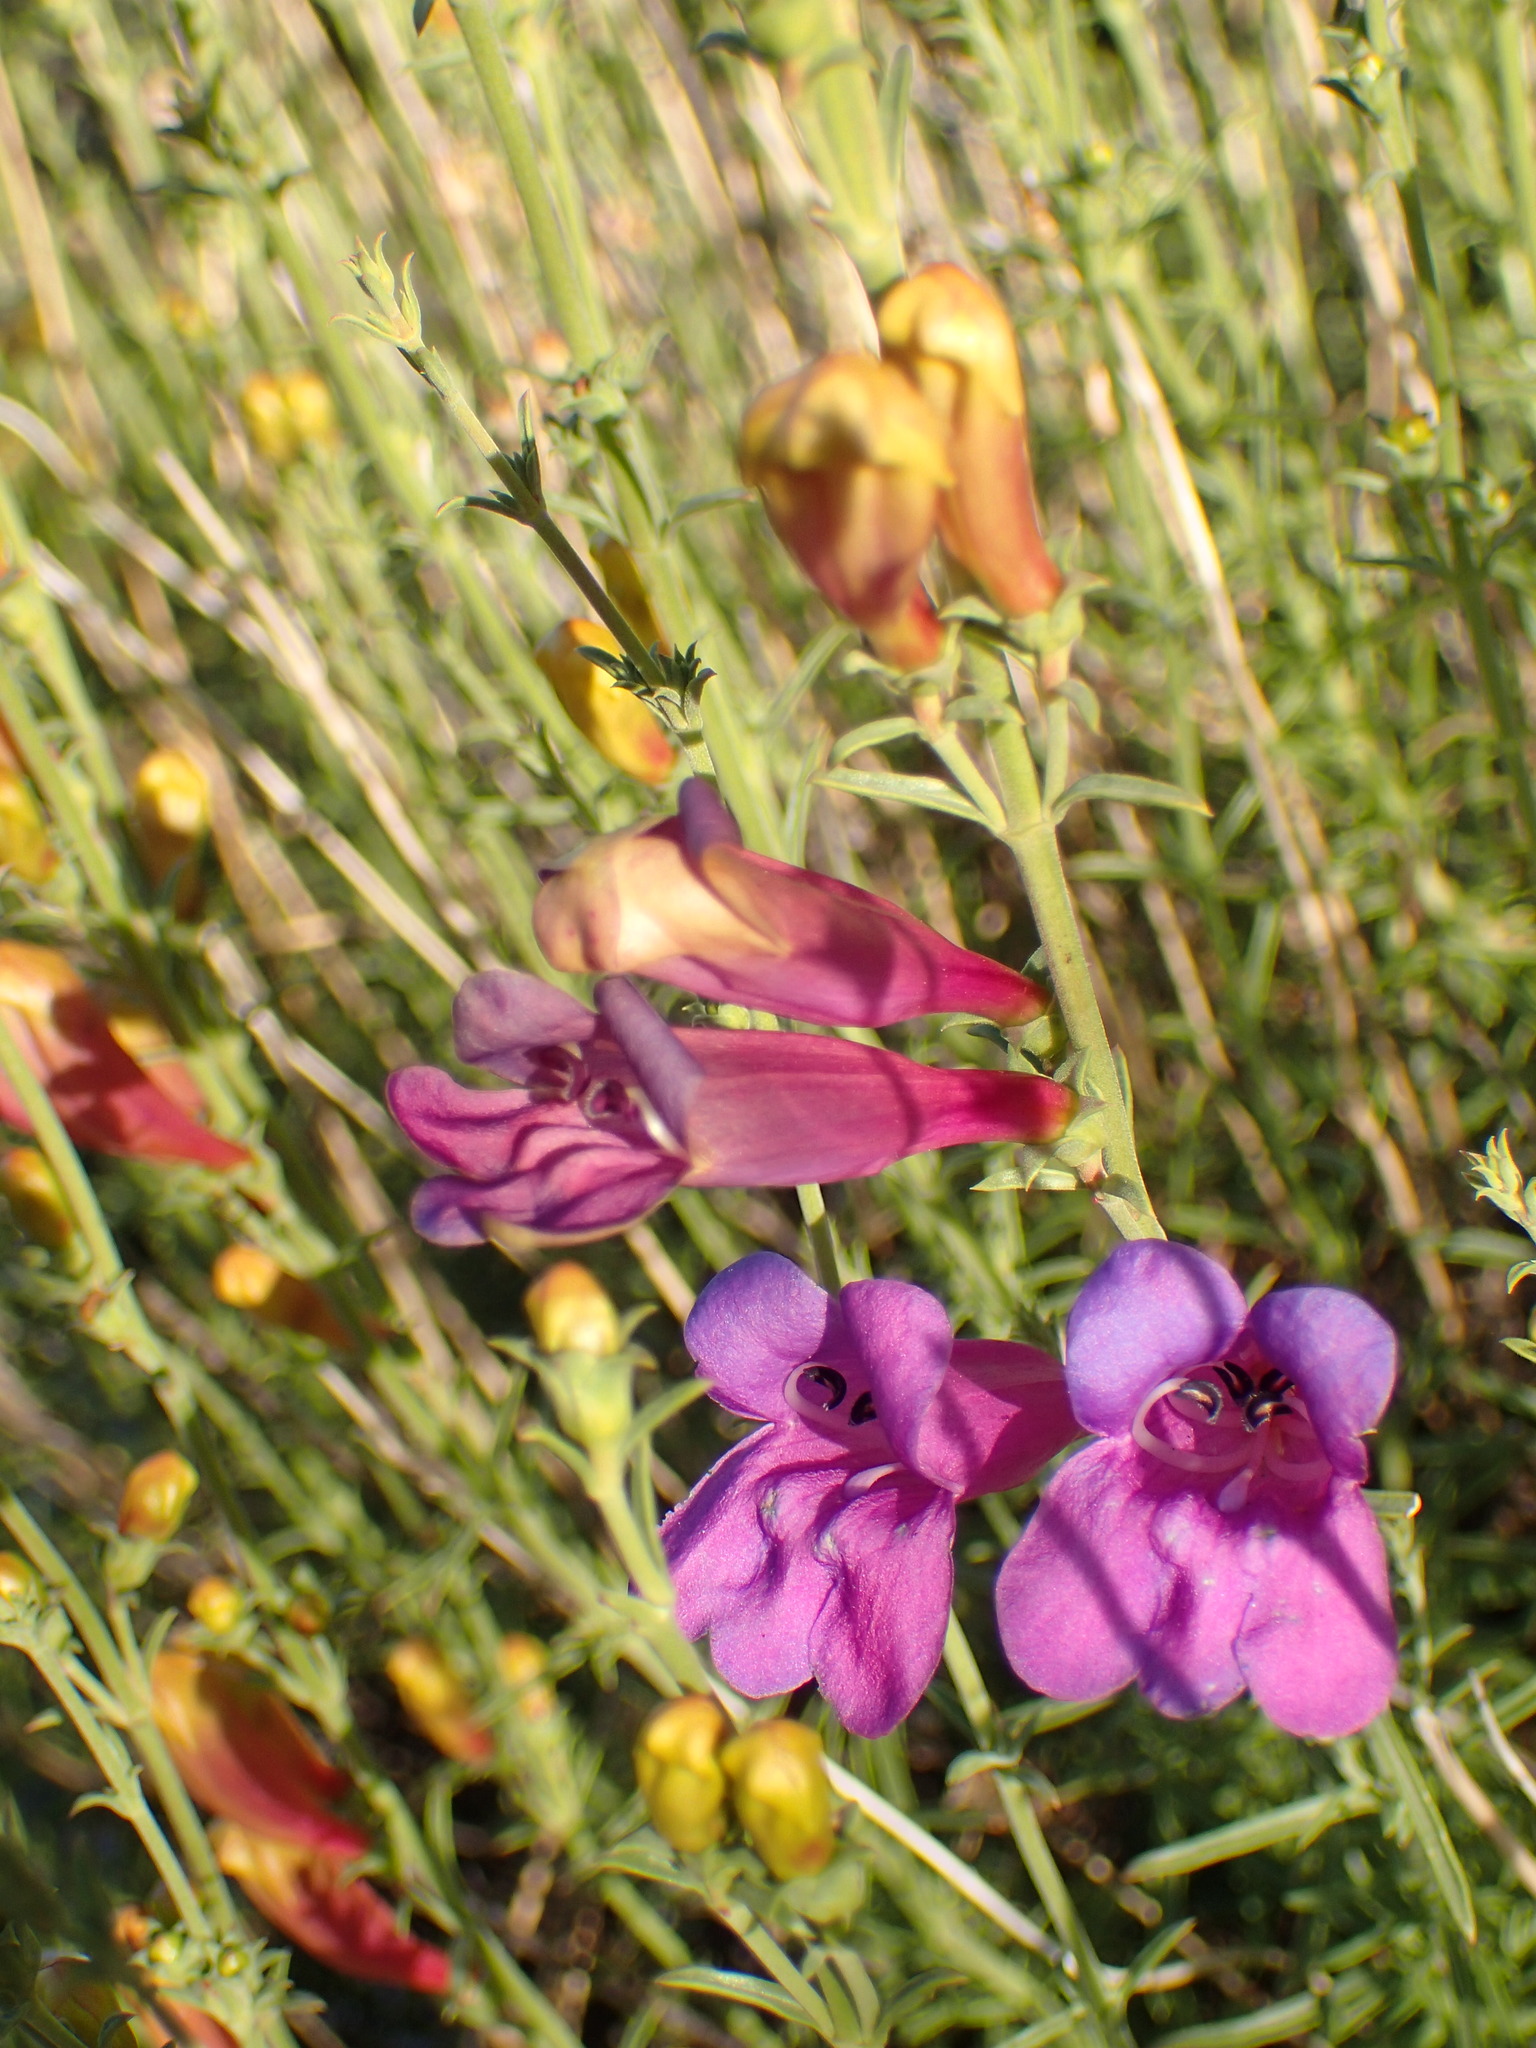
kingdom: Plantae
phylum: Tracheophyta
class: Magnoliopsida
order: Lamiales
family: Plantaginaceae
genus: Penstemon
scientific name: Penstemon heterophyllus
